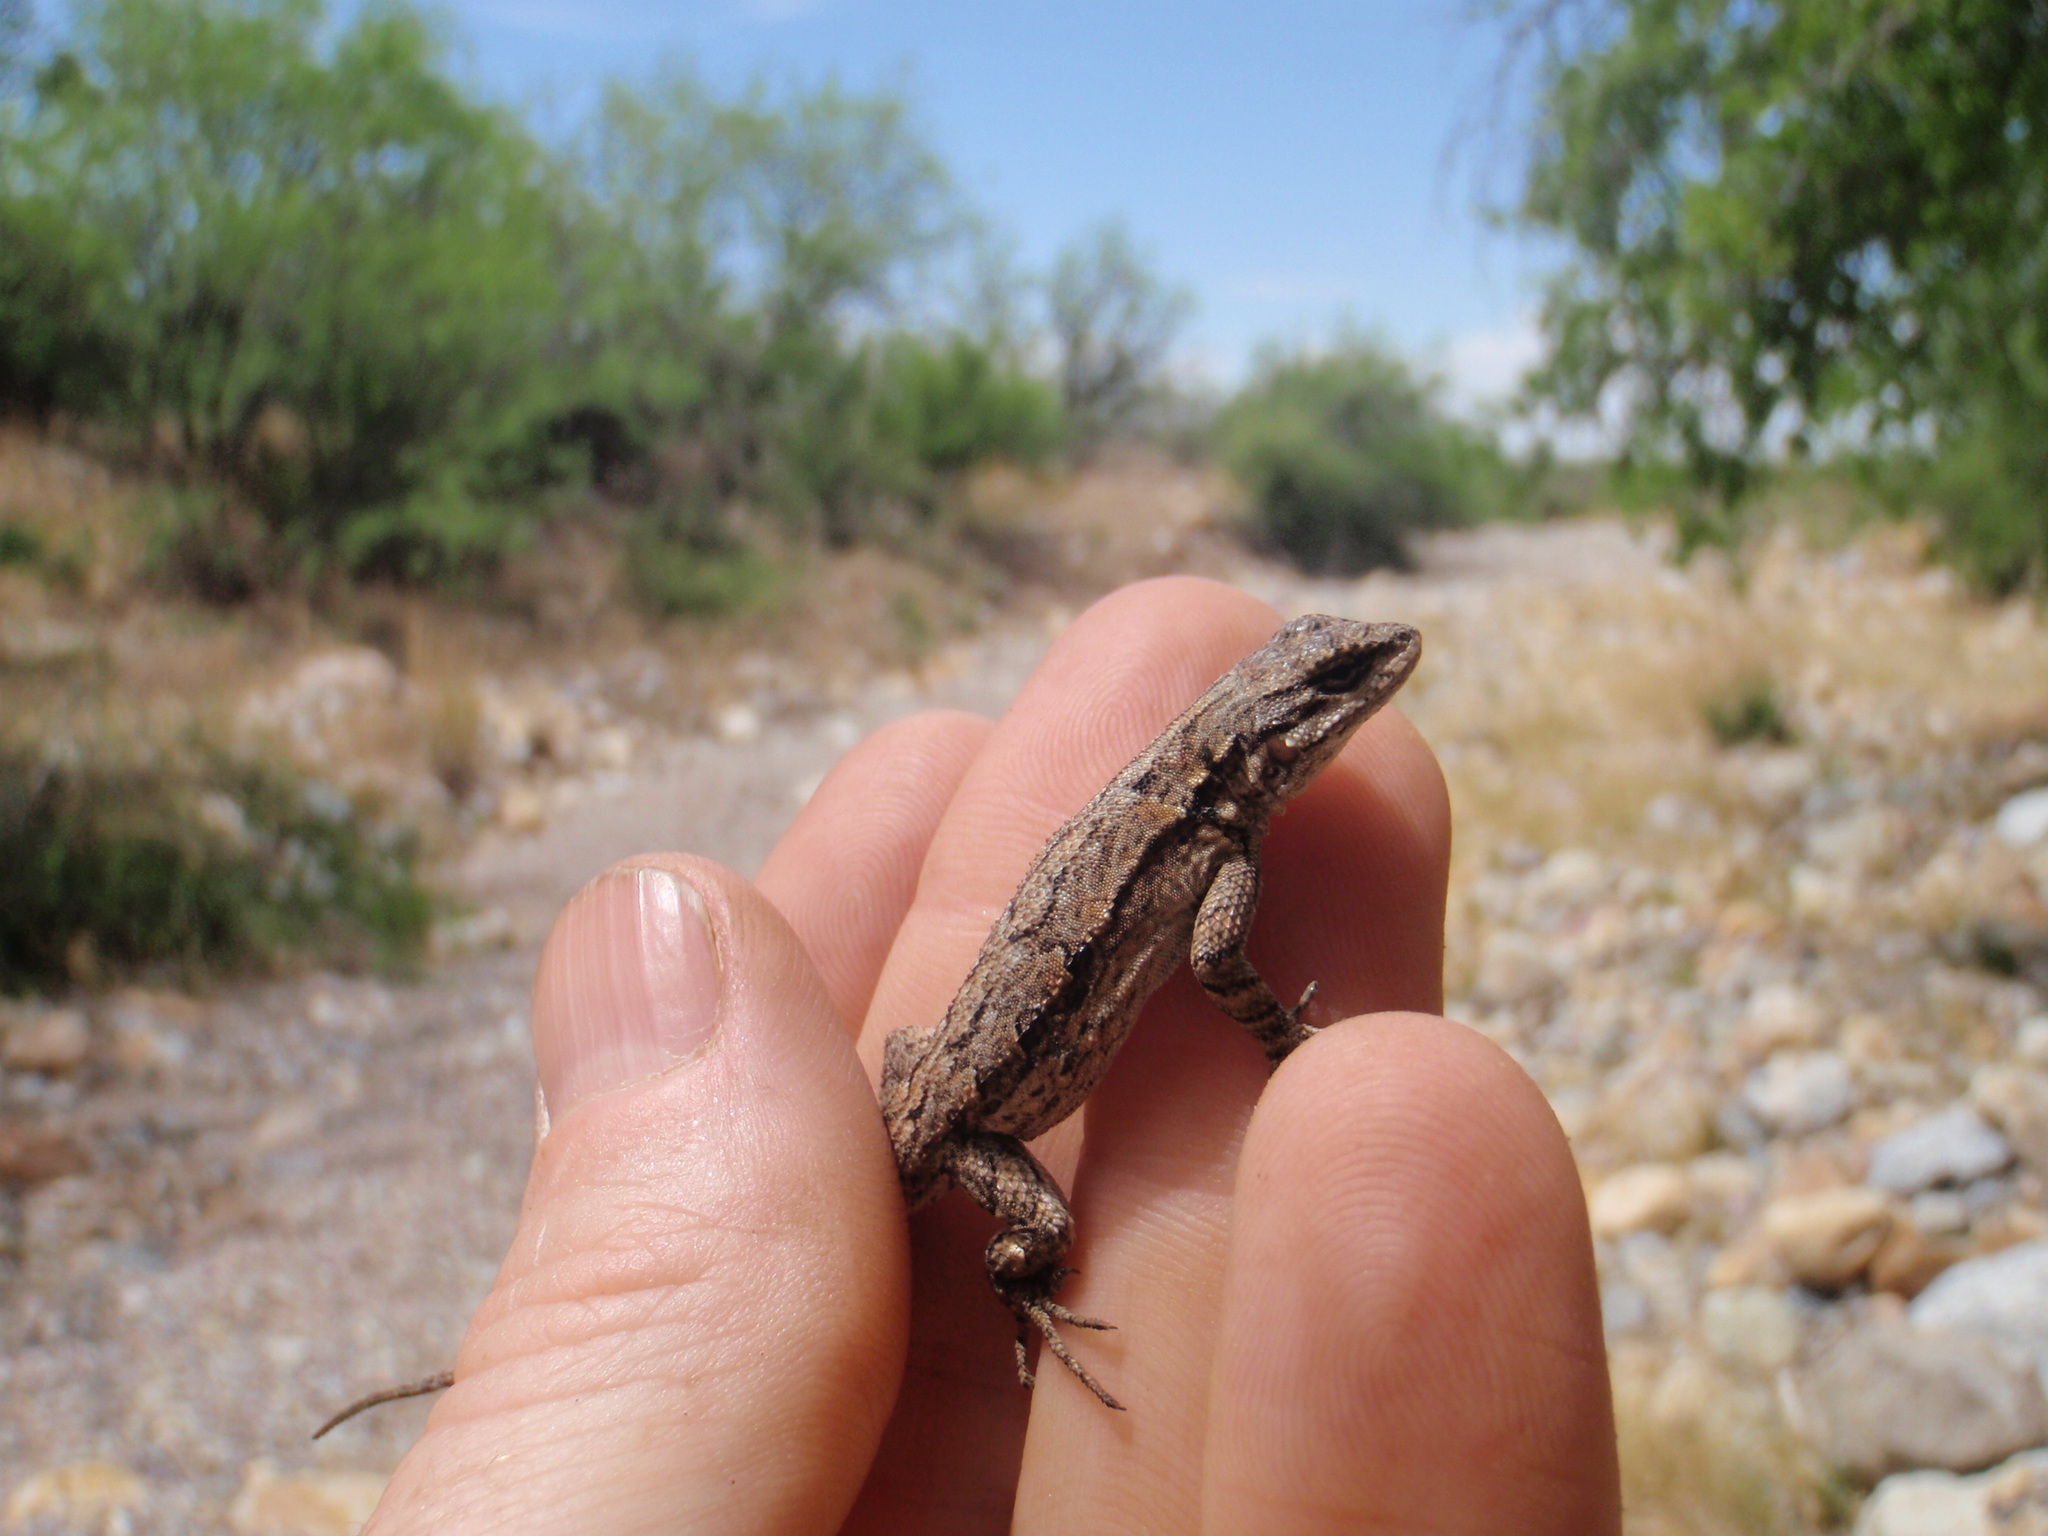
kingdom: Animalia
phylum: Chordata
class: Squamata
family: Phrynosomatidae
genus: Urosaurus
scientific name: Urosaurus ornatus
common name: Ornate tree lizard
